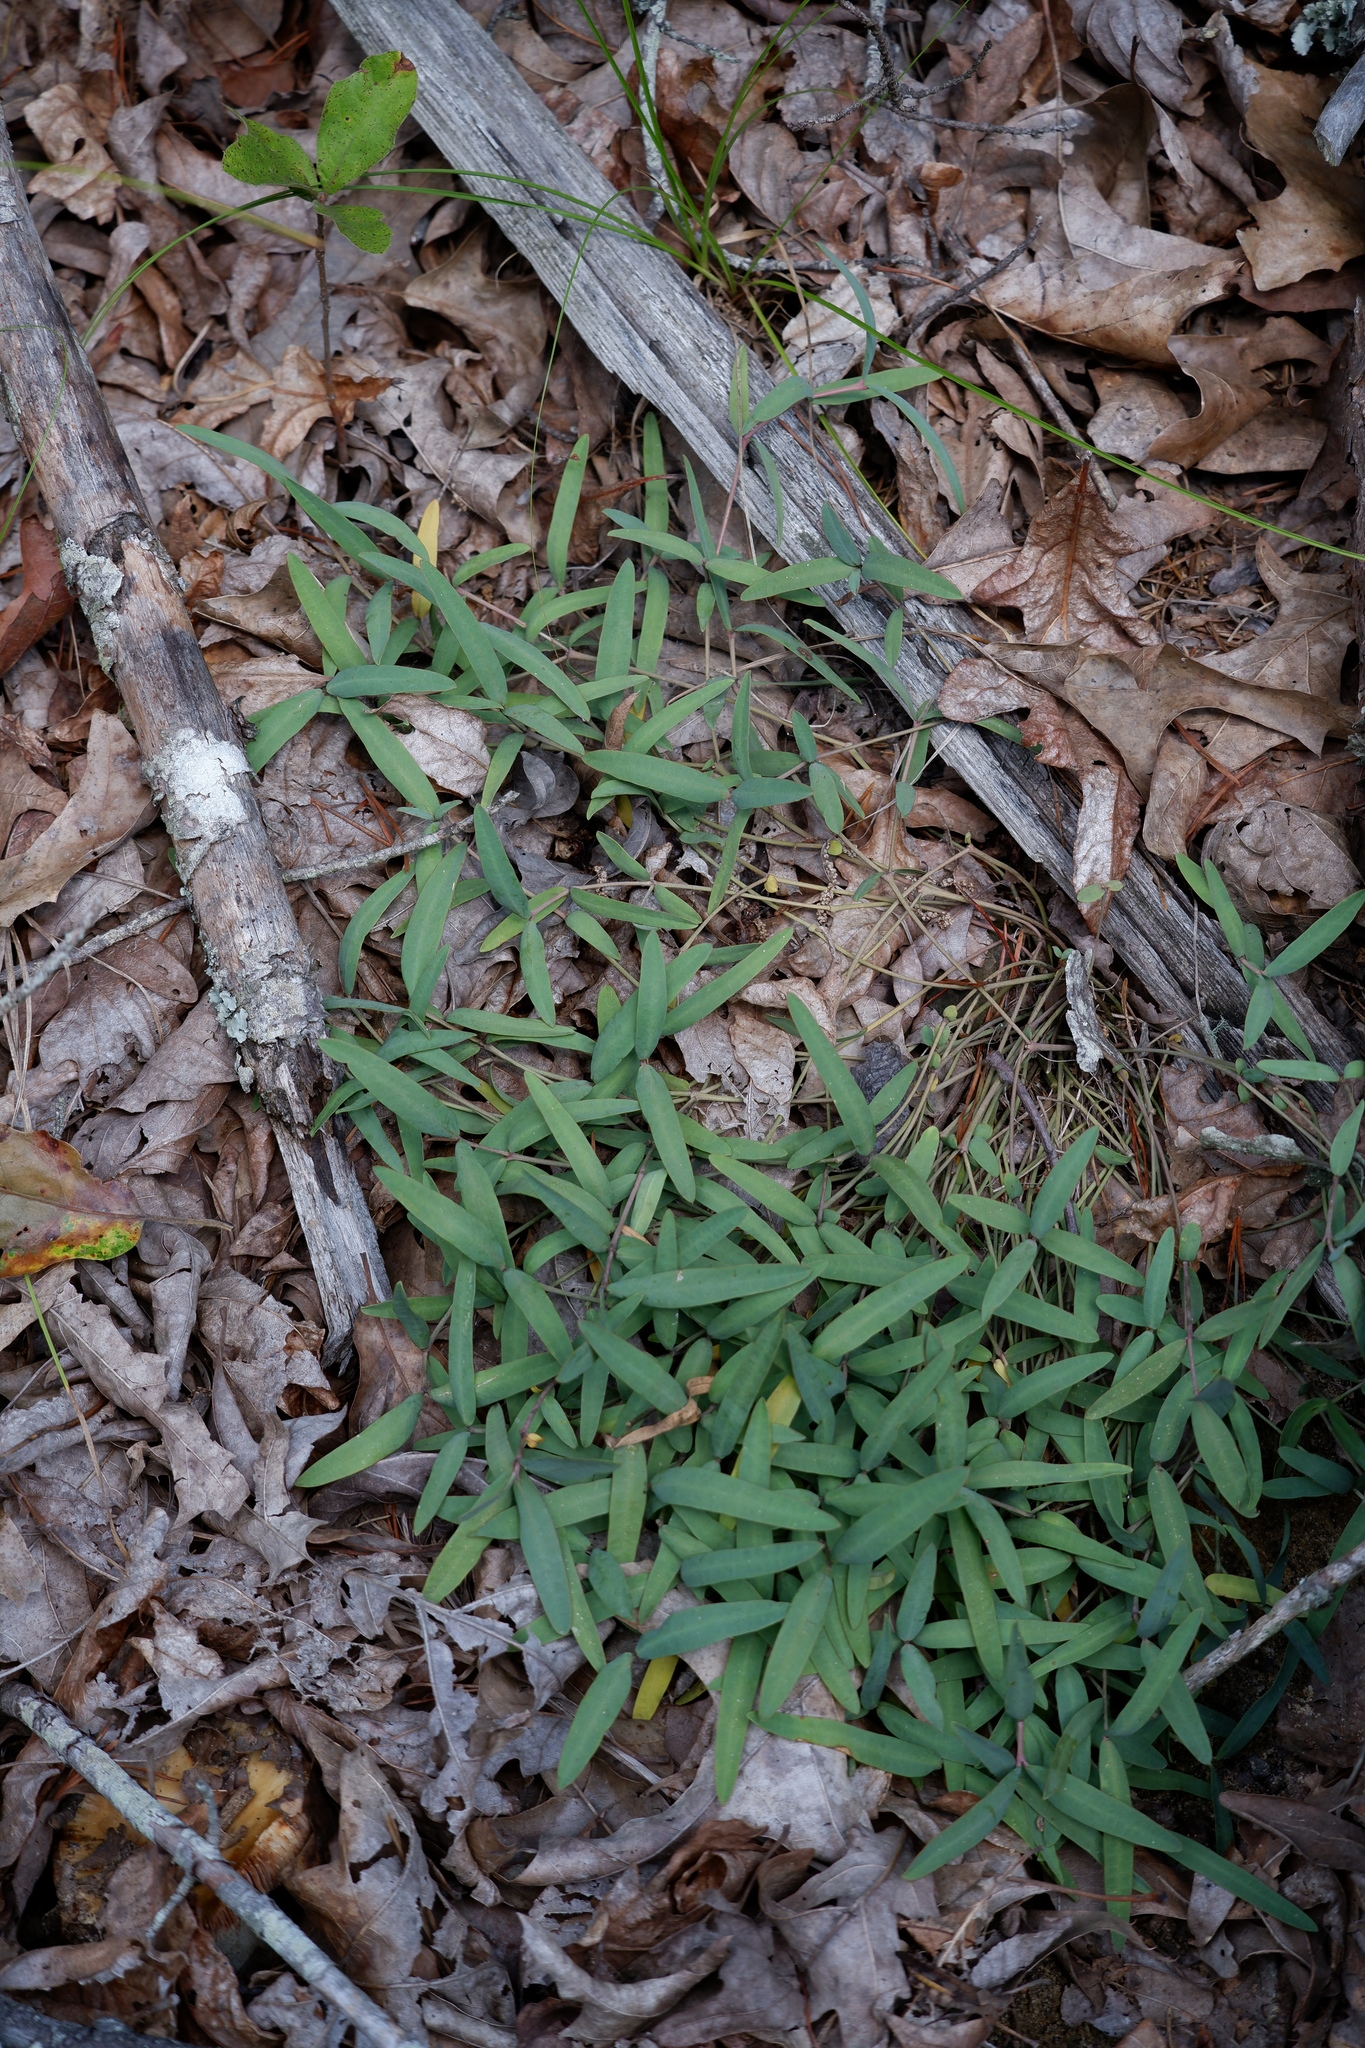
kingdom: Plantae
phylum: Tracheophyta
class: Magnoliopsida
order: Malpighiales
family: Euphorbiaceae
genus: Euphorbia
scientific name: Euphorbia ipecacuanhae
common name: Carolina ipecac
